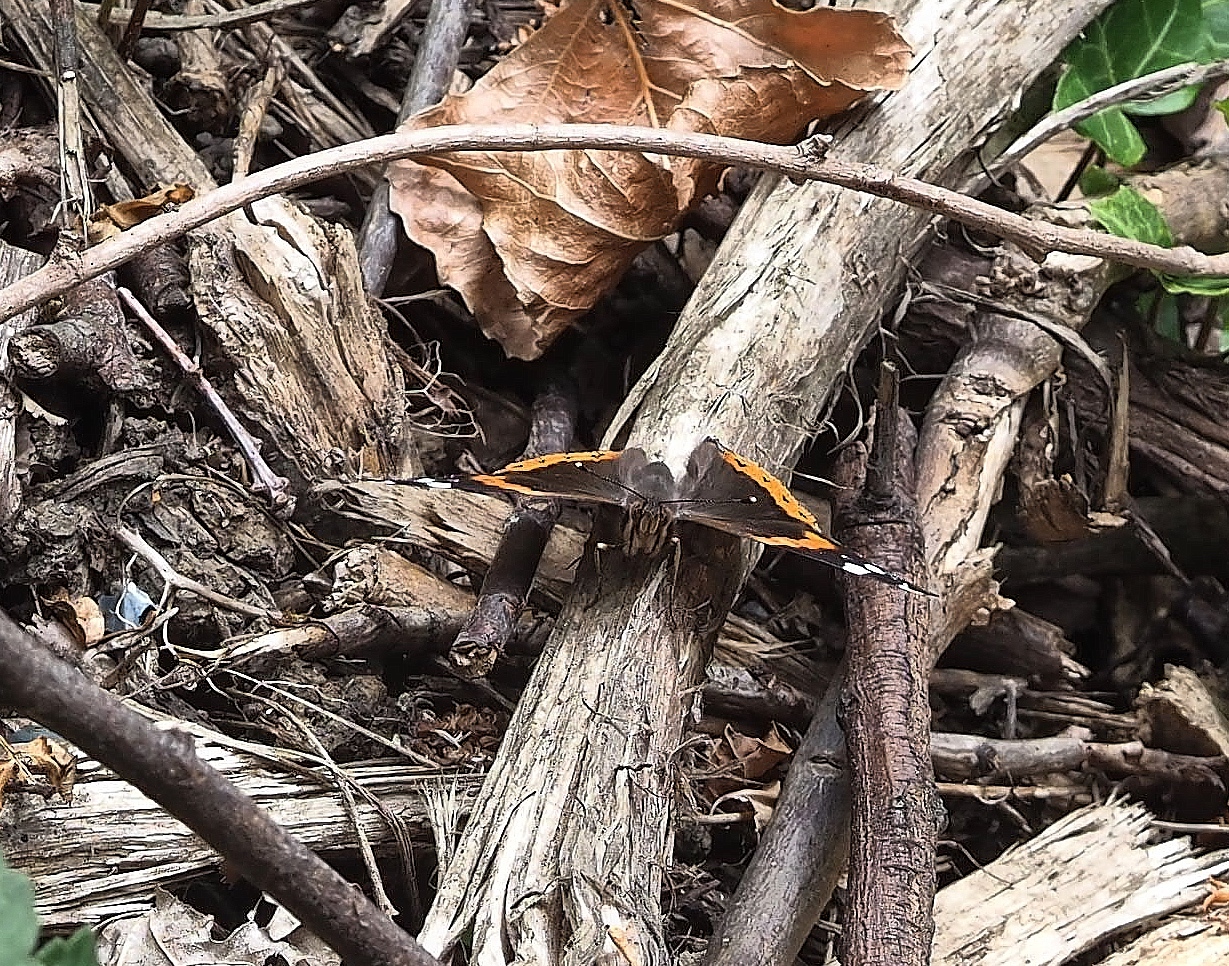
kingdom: Animalia
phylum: Arthropoda
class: Insecta
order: Lepidoptera
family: Nymphalidae
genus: Vanessa
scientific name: Vanessa atalanta
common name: Red admiral
